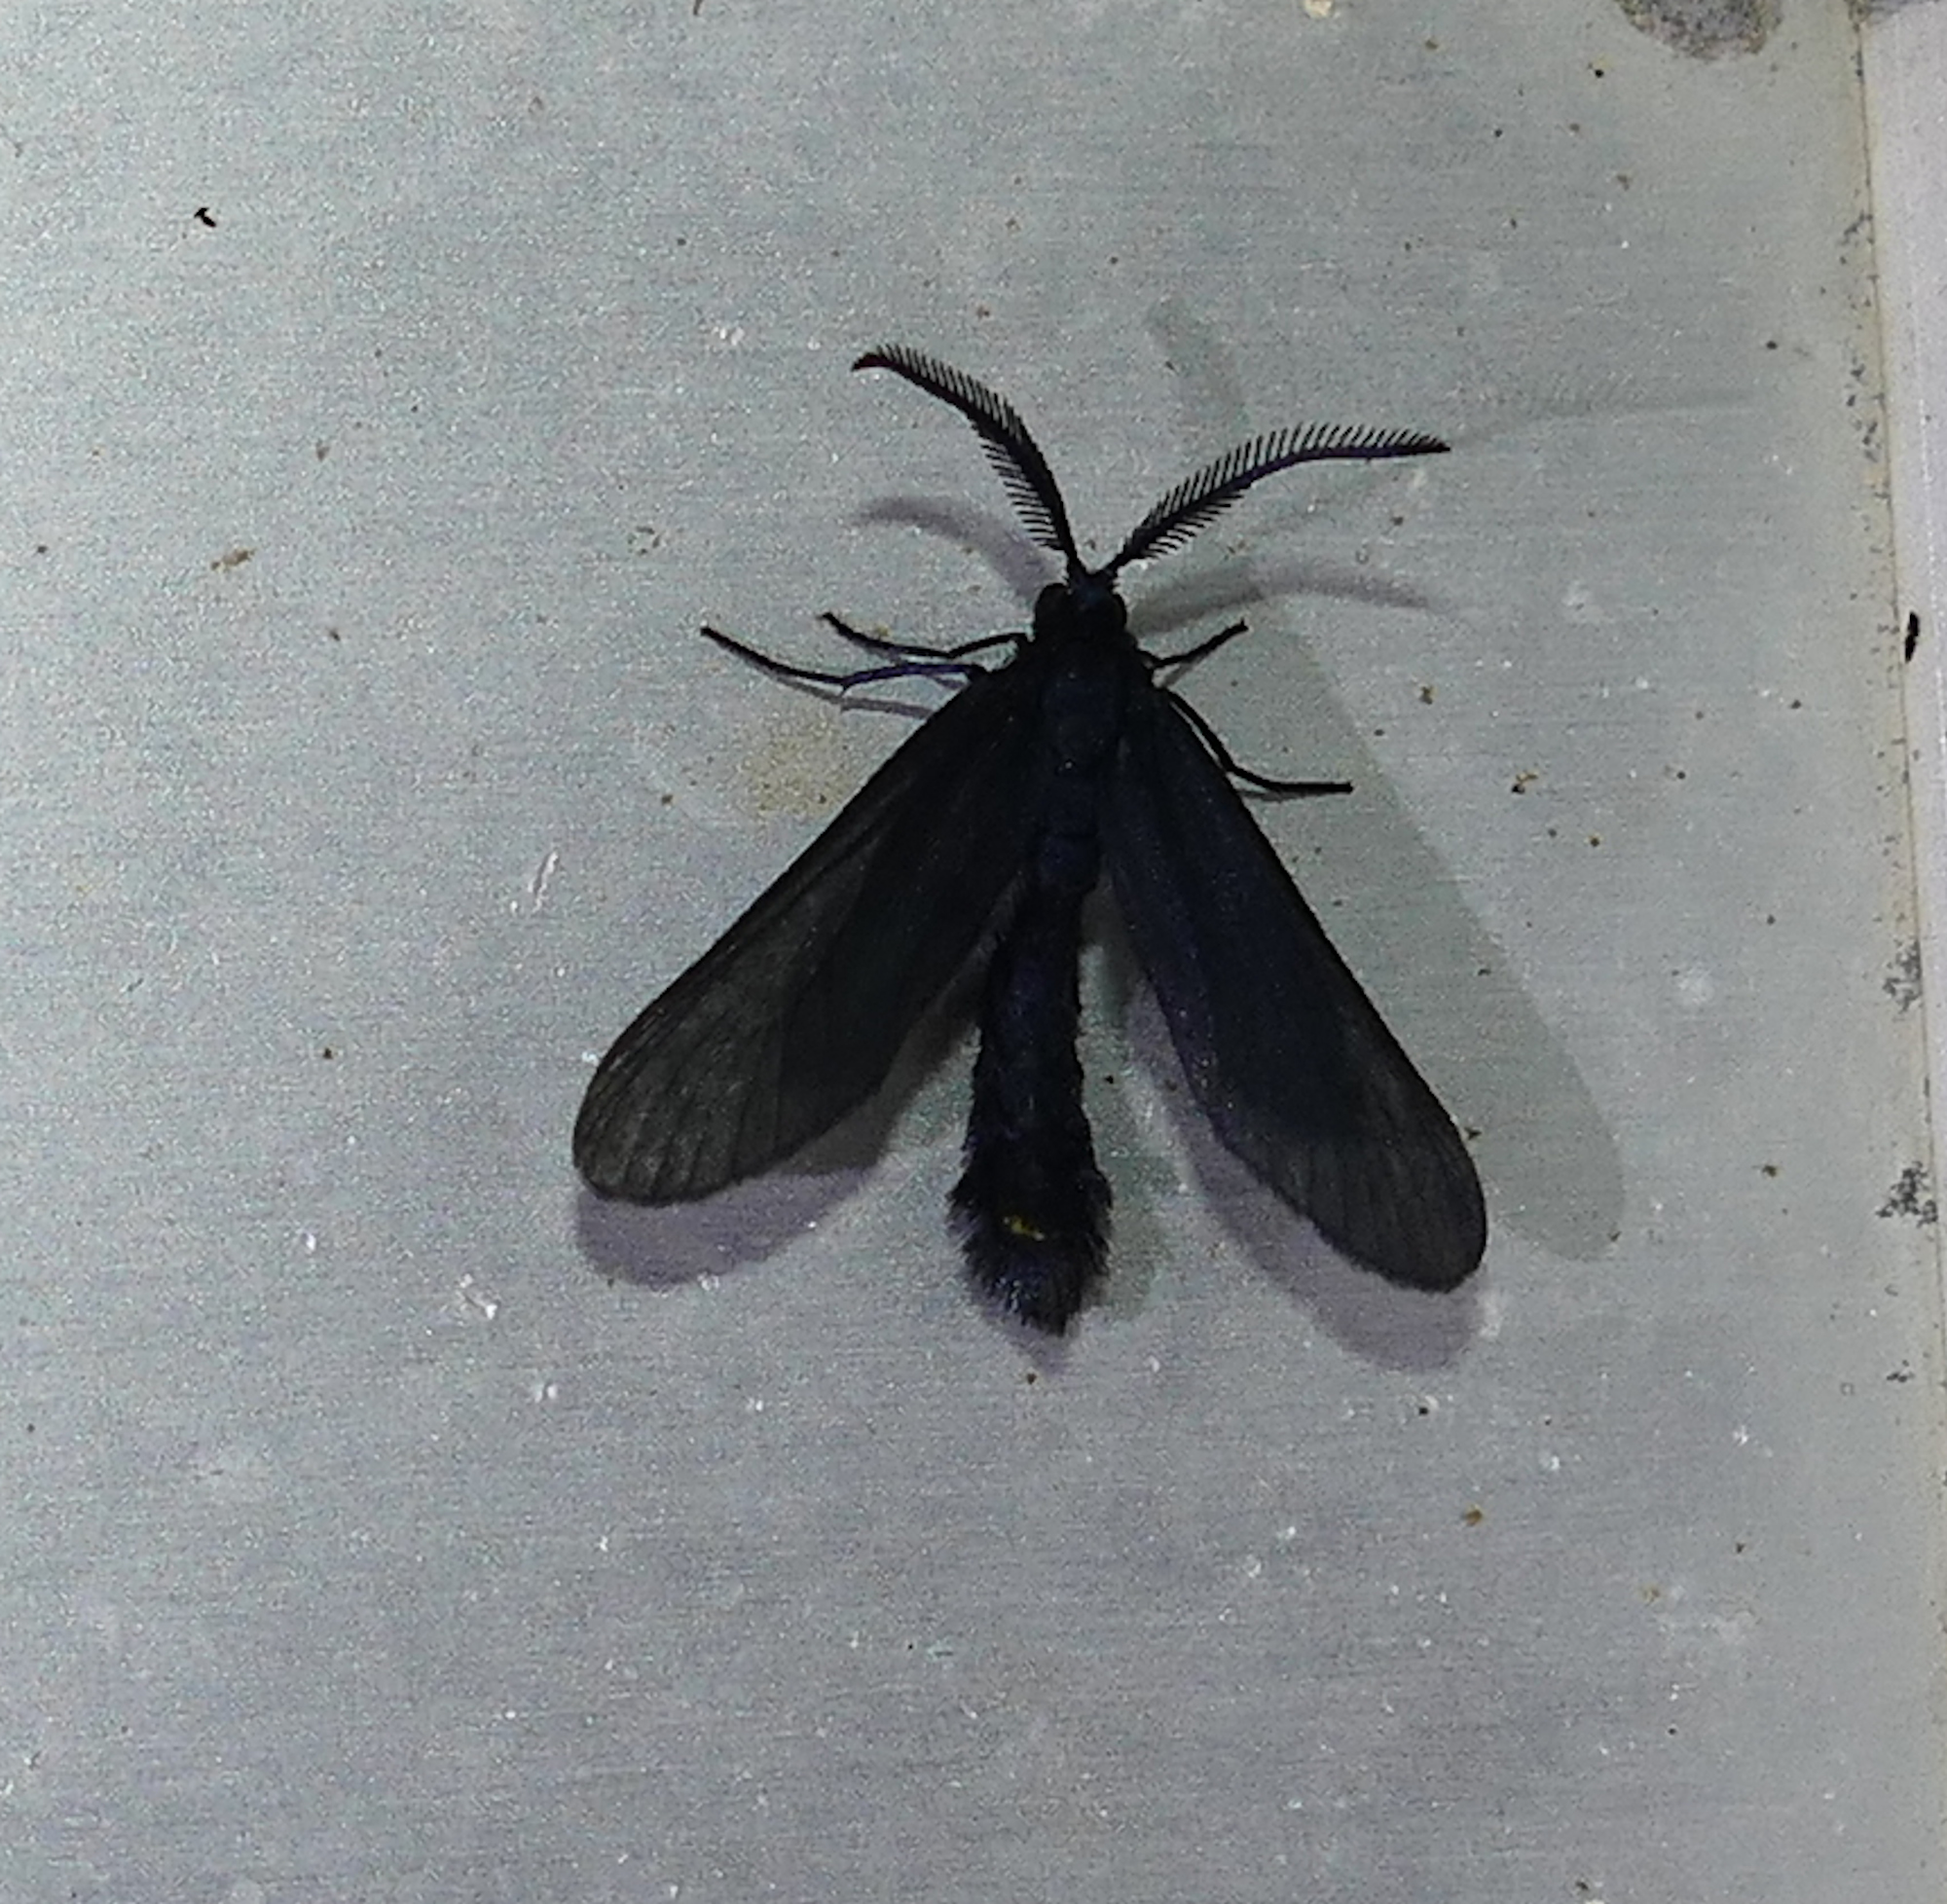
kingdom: Animalia
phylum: Arthropoda
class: Insecta
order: Lepidoptera
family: Zygaenidae
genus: Harrisina
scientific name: Harrisina coracina
